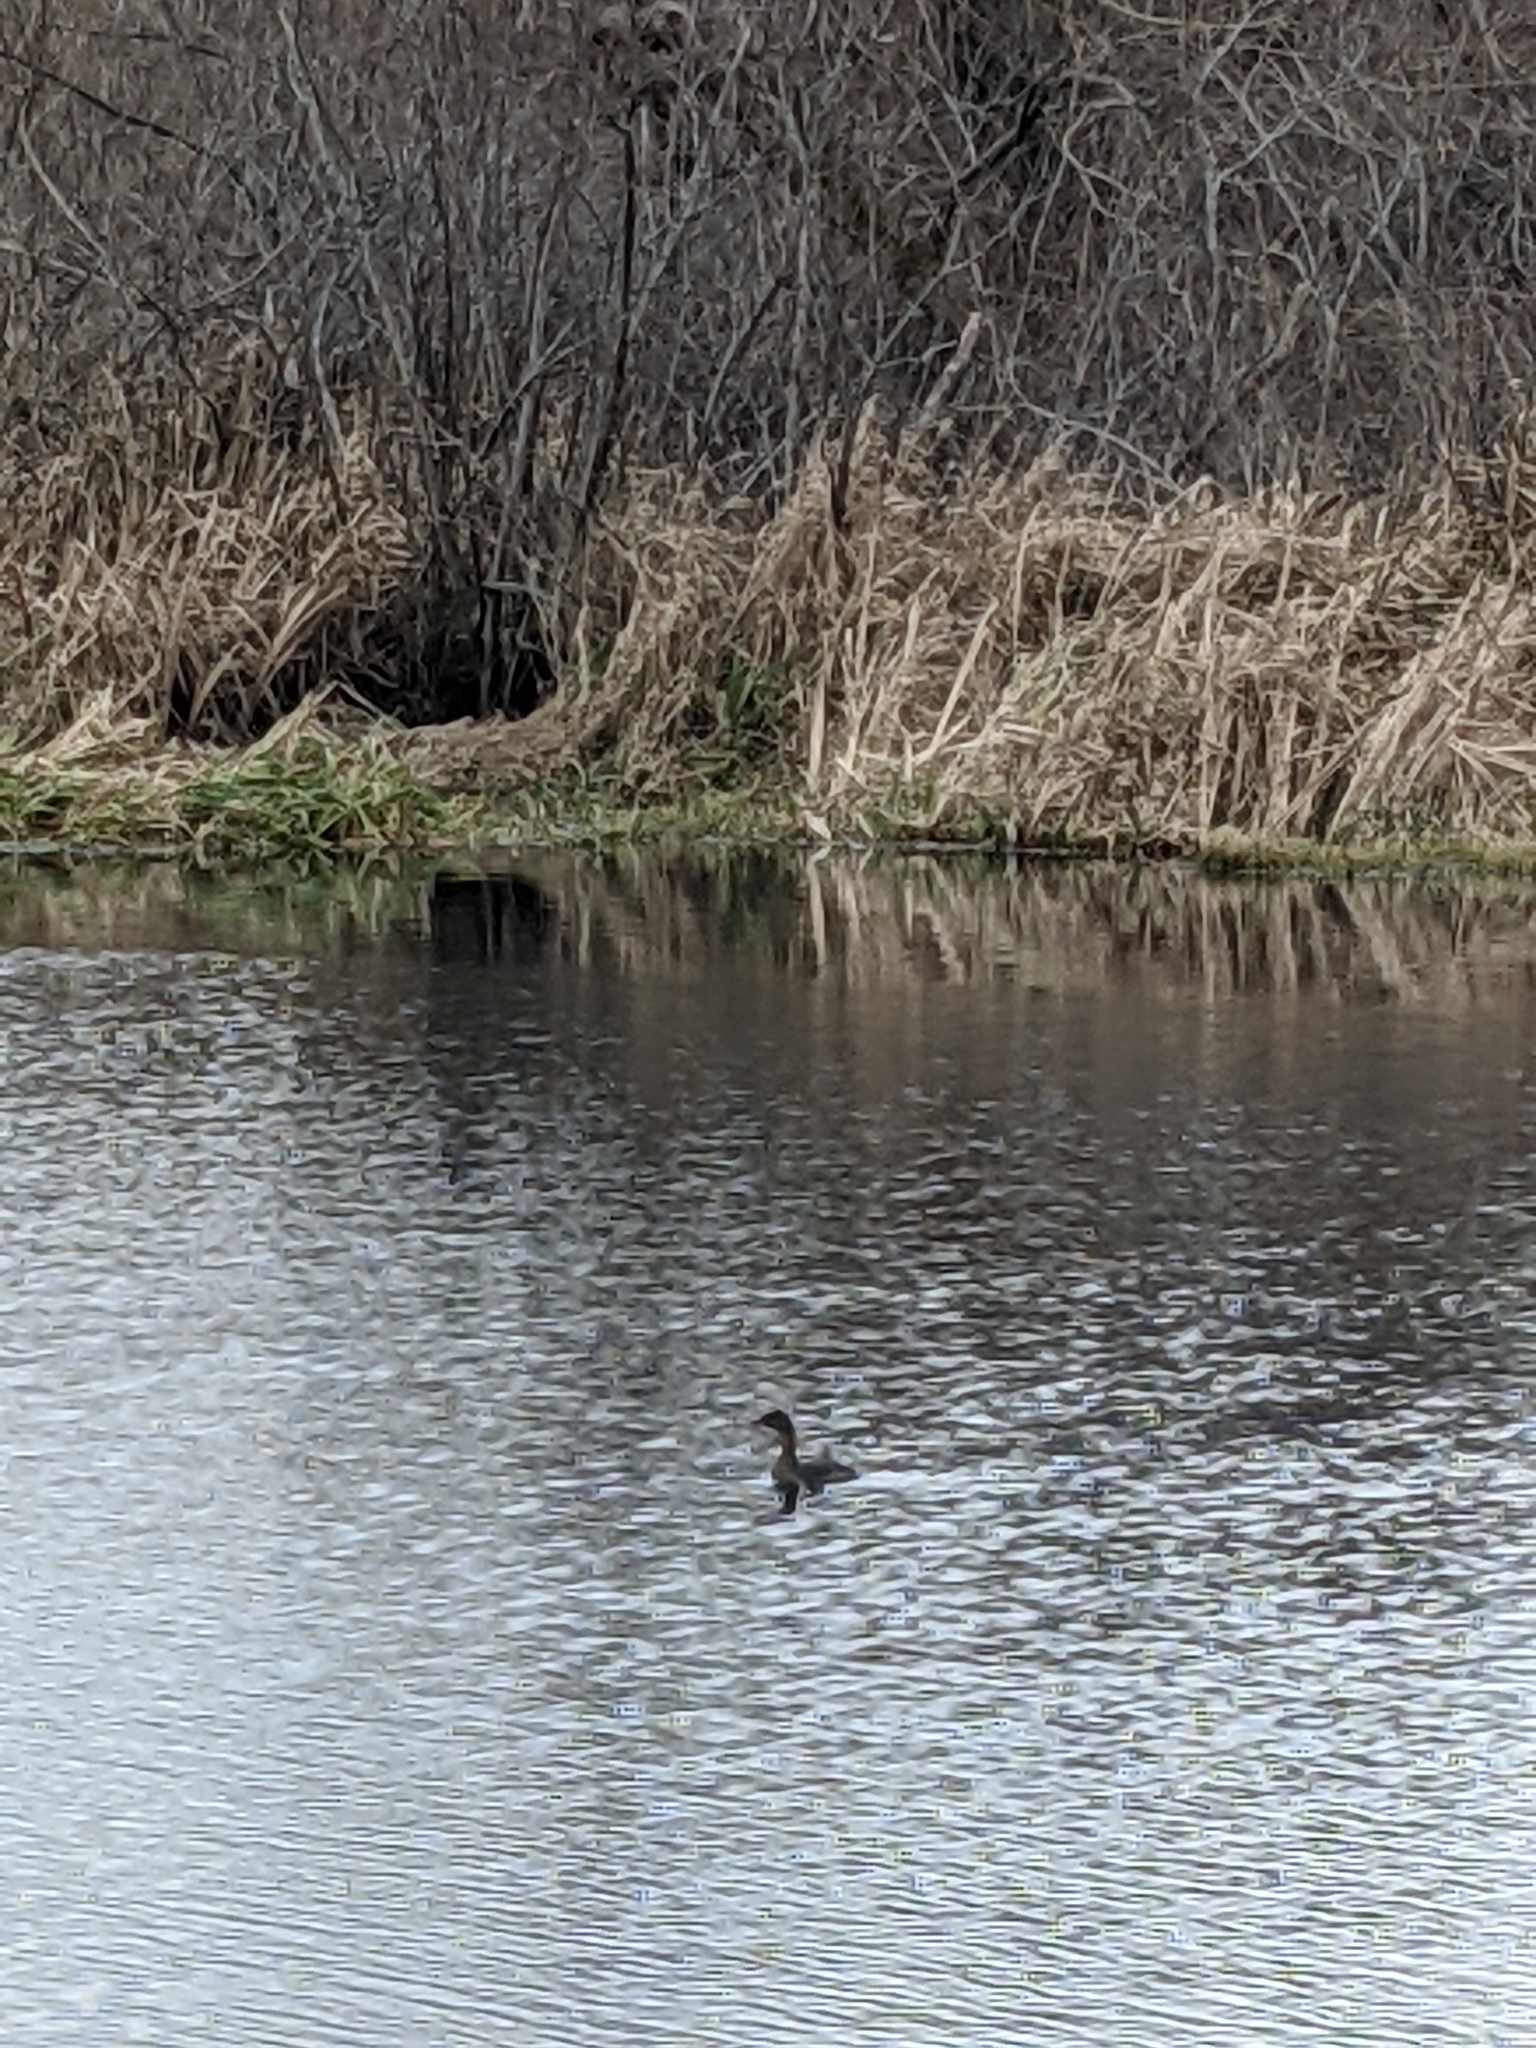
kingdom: Animalia
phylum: Chordata
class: Aves
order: Podicipediformes
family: Podicipedidae
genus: Podilymbus
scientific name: Podilymbus podiceps
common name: Pied-billed grebe
